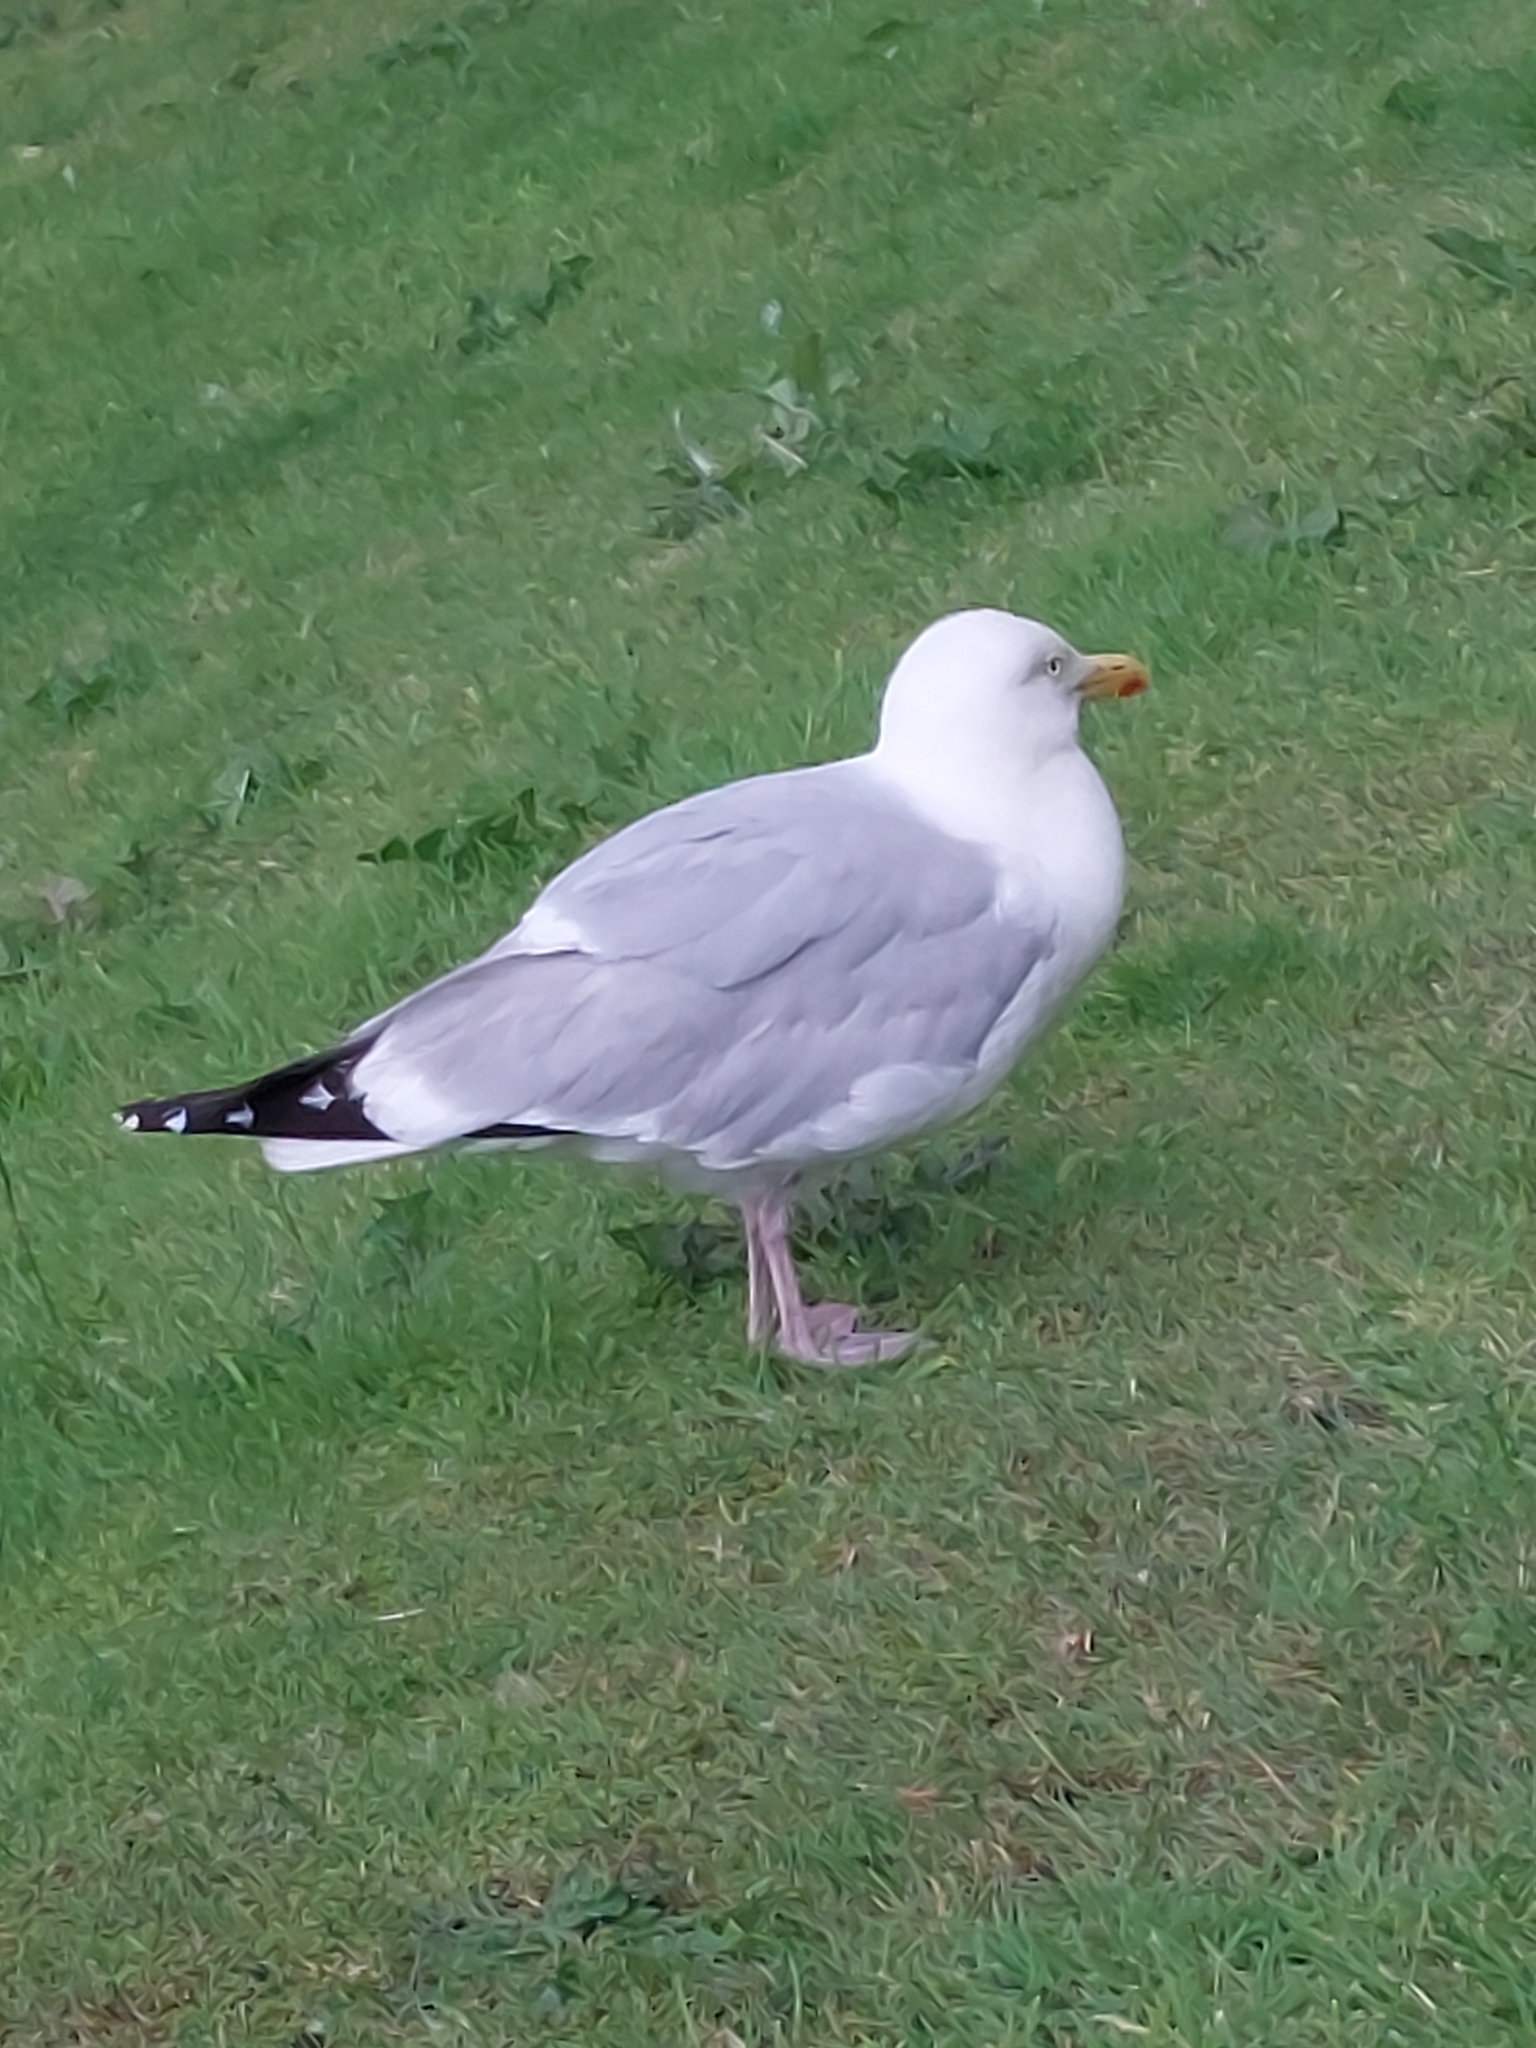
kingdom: Animalia
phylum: Chordata
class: Aves
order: Charadriiformes
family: Laridae
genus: Larus
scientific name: Larus argentatus
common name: Herring gull
